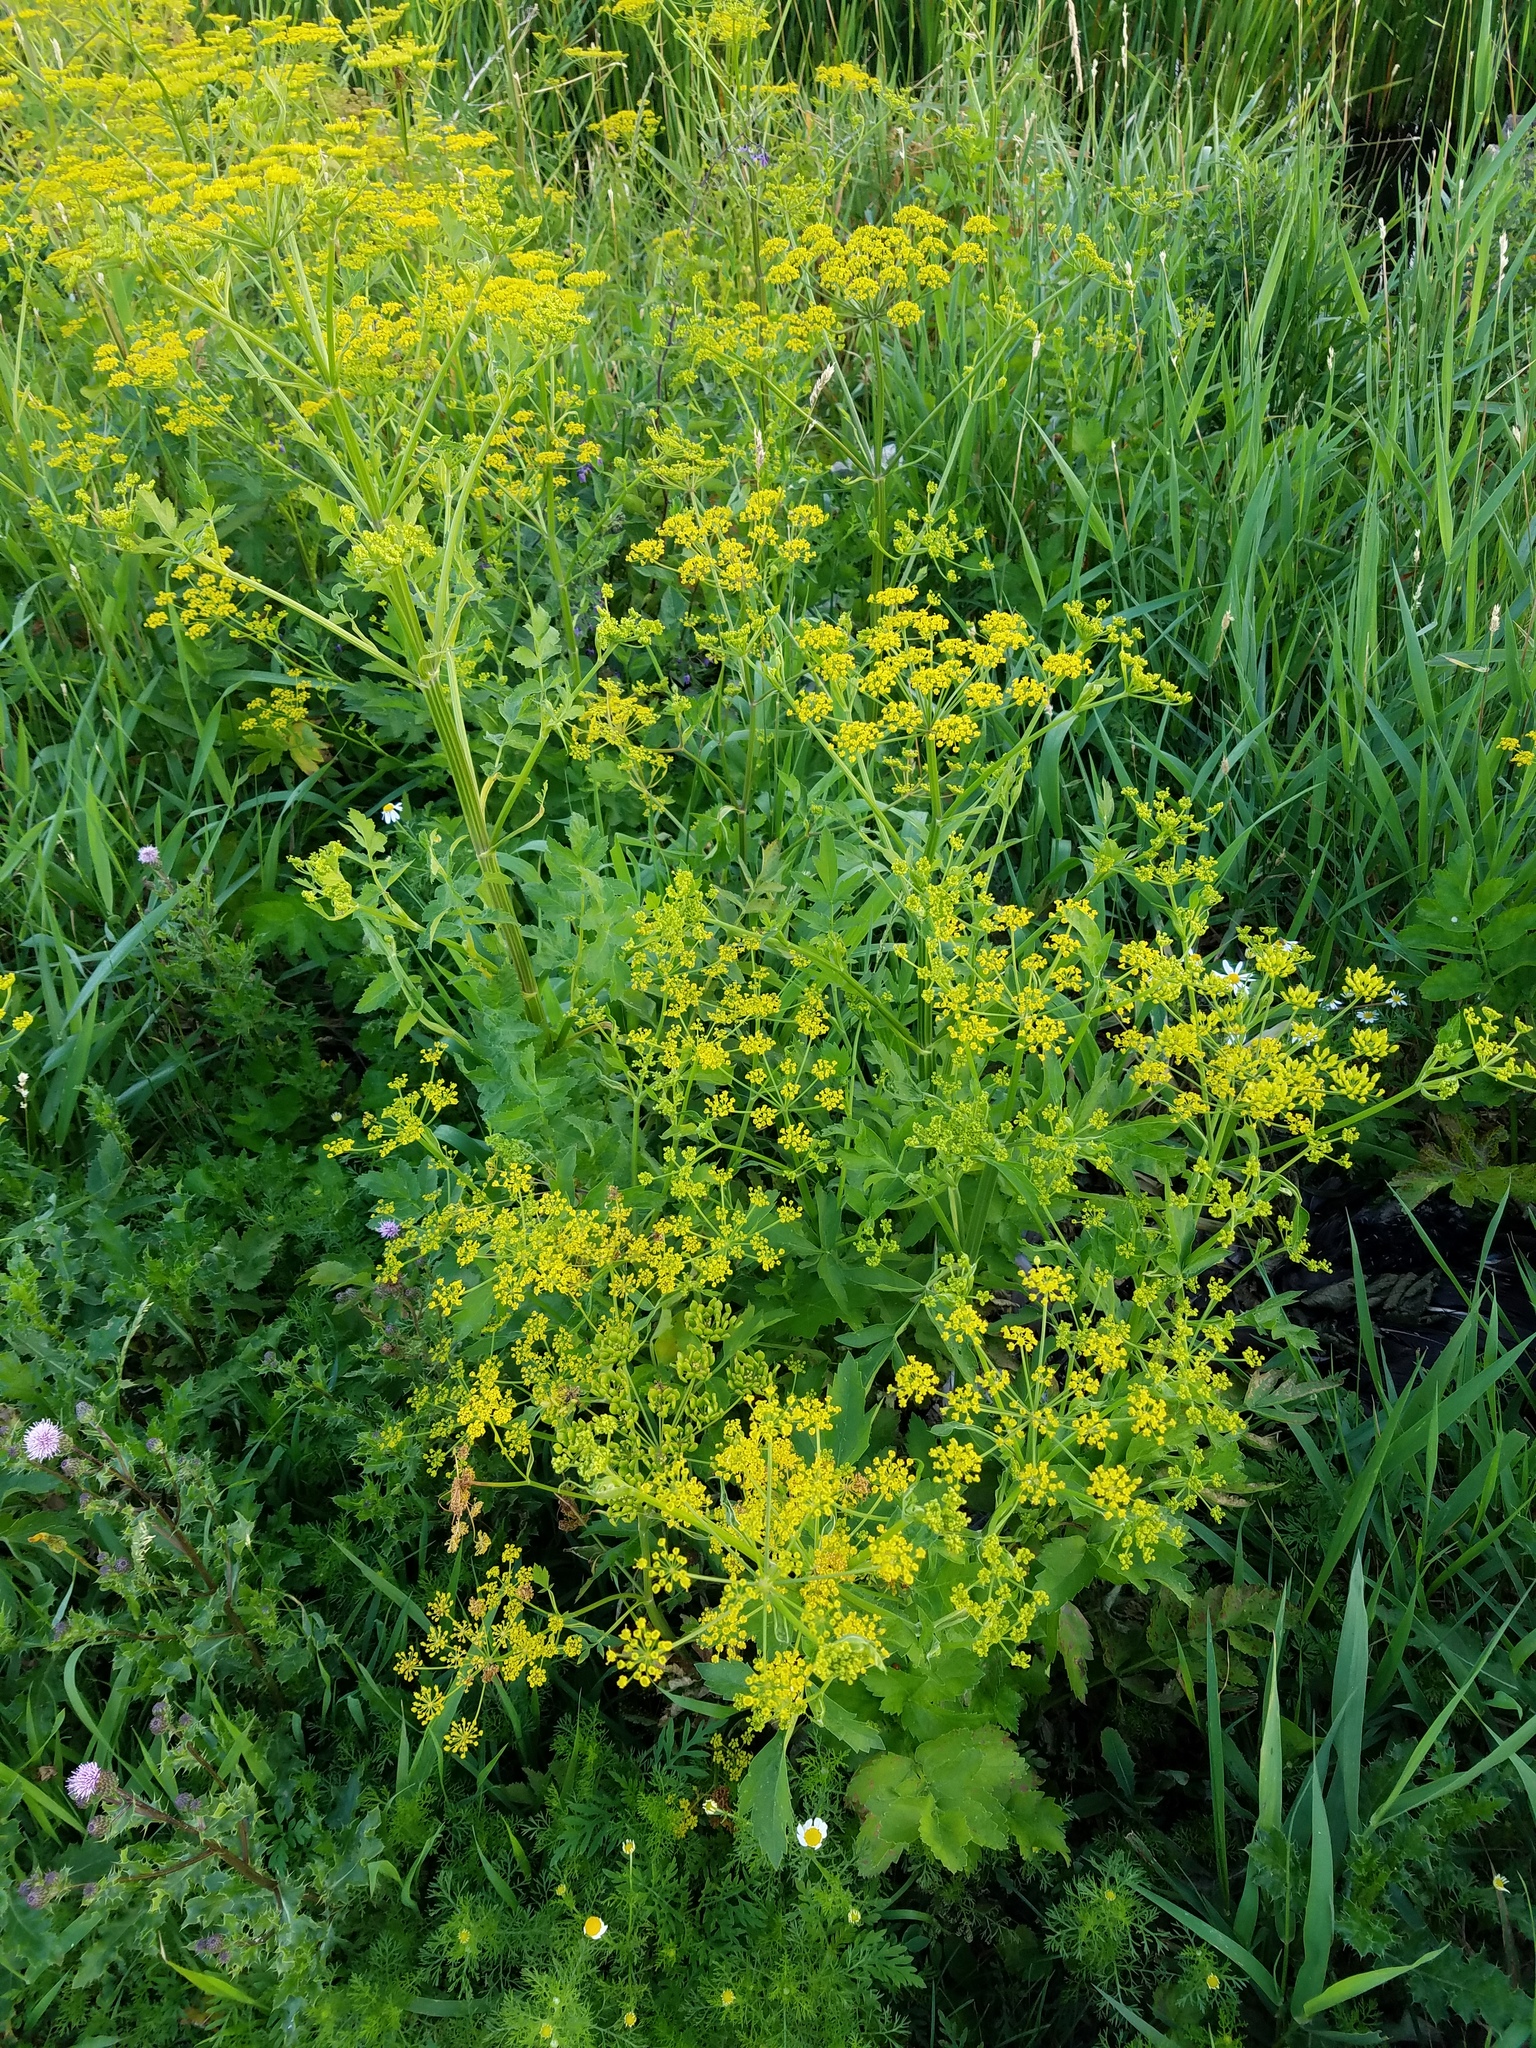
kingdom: Plantae
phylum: Tracheophyta
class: Magnoliopsida
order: Apiales
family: Apiaceae
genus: Pastinaca
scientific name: Pastinaca sativa
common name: Wild parsnip
